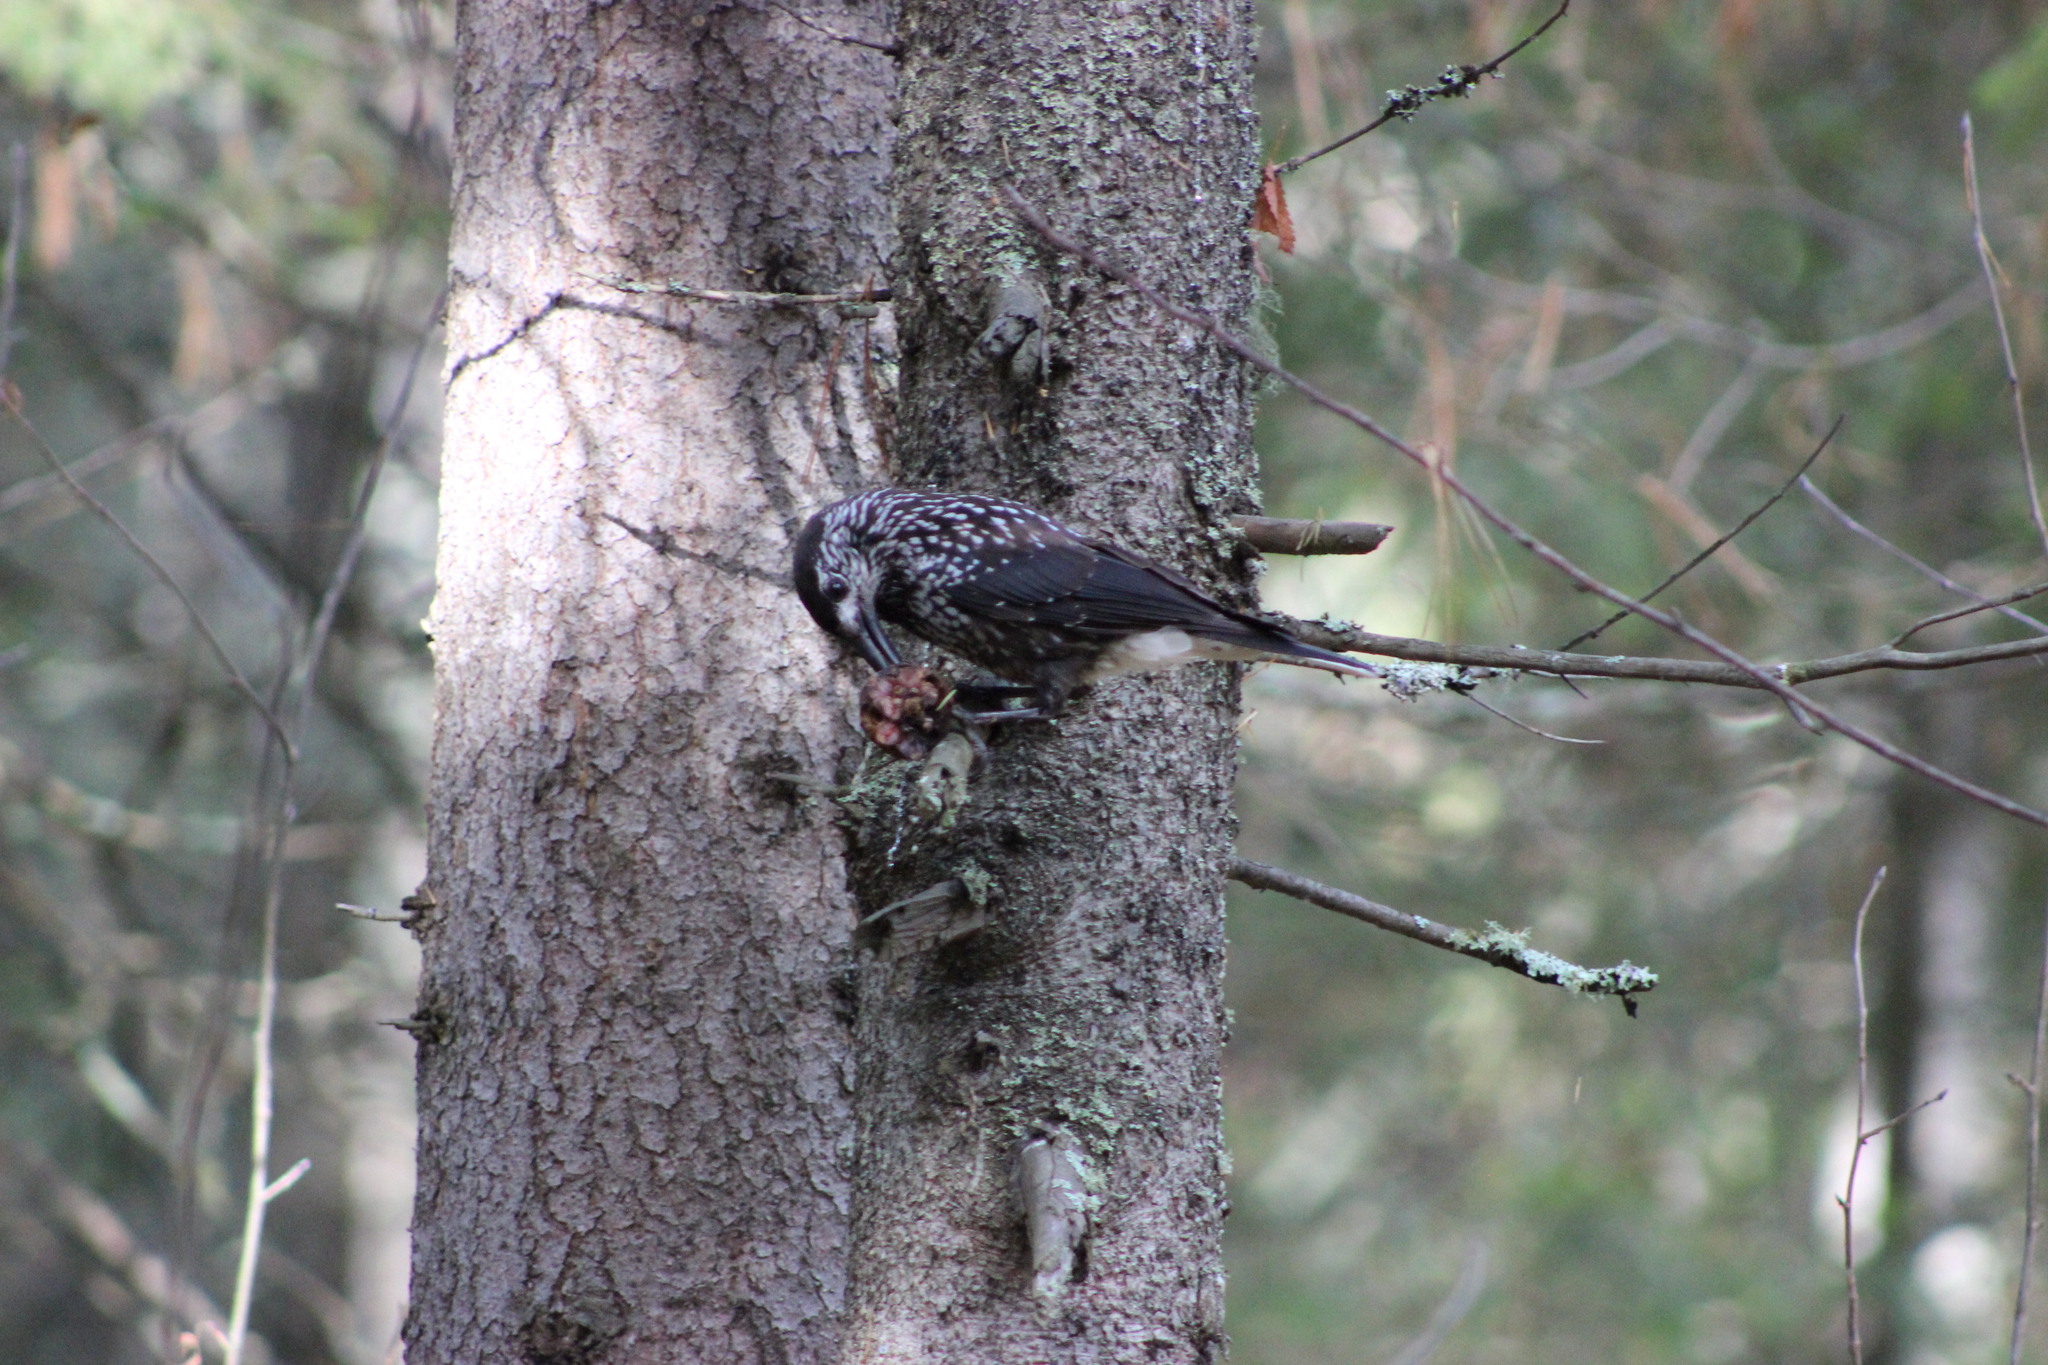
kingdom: Animalia
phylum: Chordata
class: Aves
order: Passeriformes
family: Corvidae
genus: Nucifraga
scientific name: Nucifraga caryocatactes
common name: Spotted nutcracker
